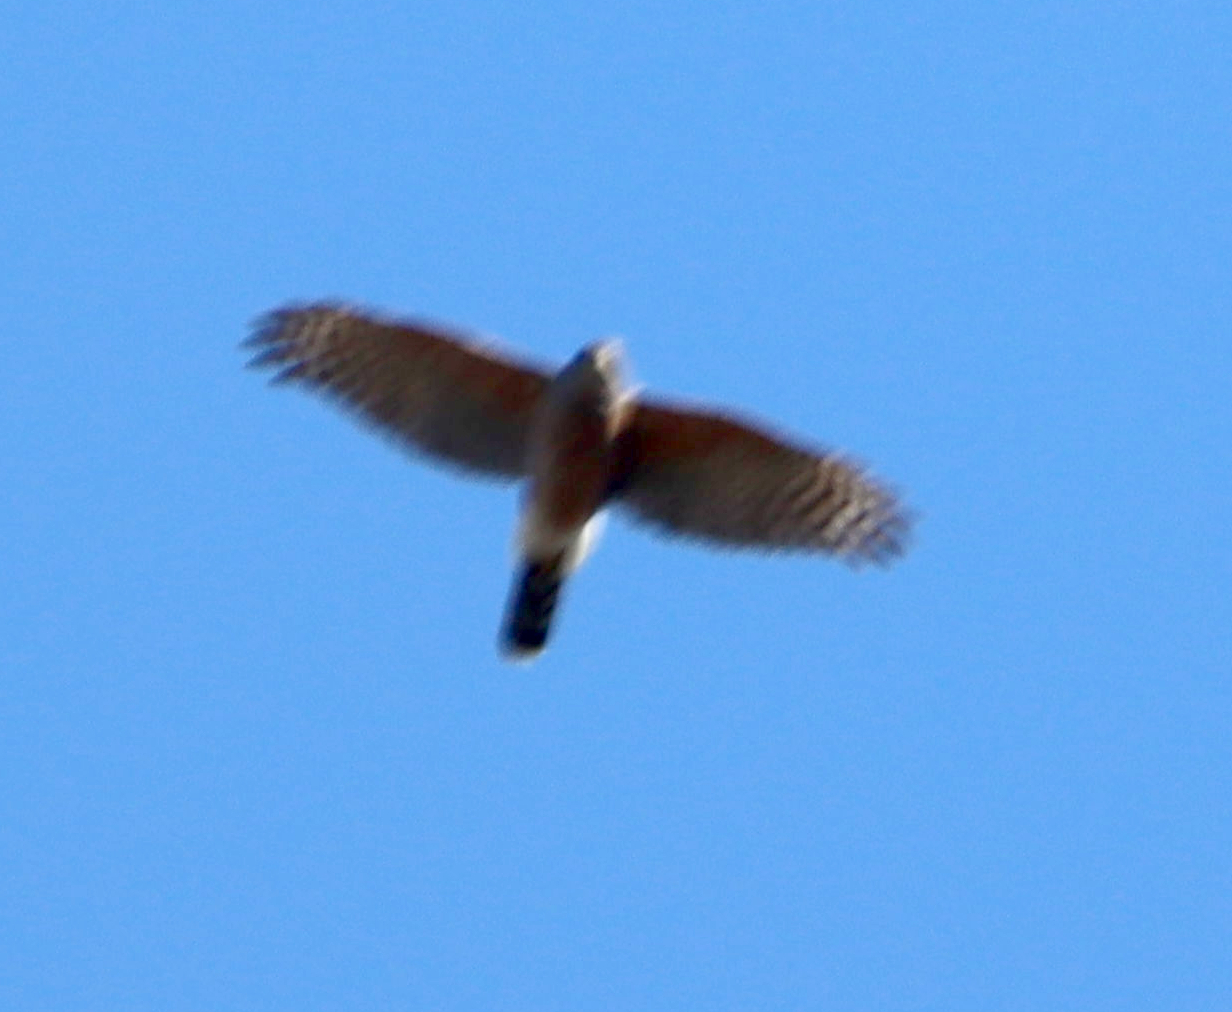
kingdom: Animalia
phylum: Chordata
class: Aves
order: Accipitriformes
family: Accipitridae
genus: Accipiter
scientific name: Accipiter cooperii
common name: Cooper's hawk
